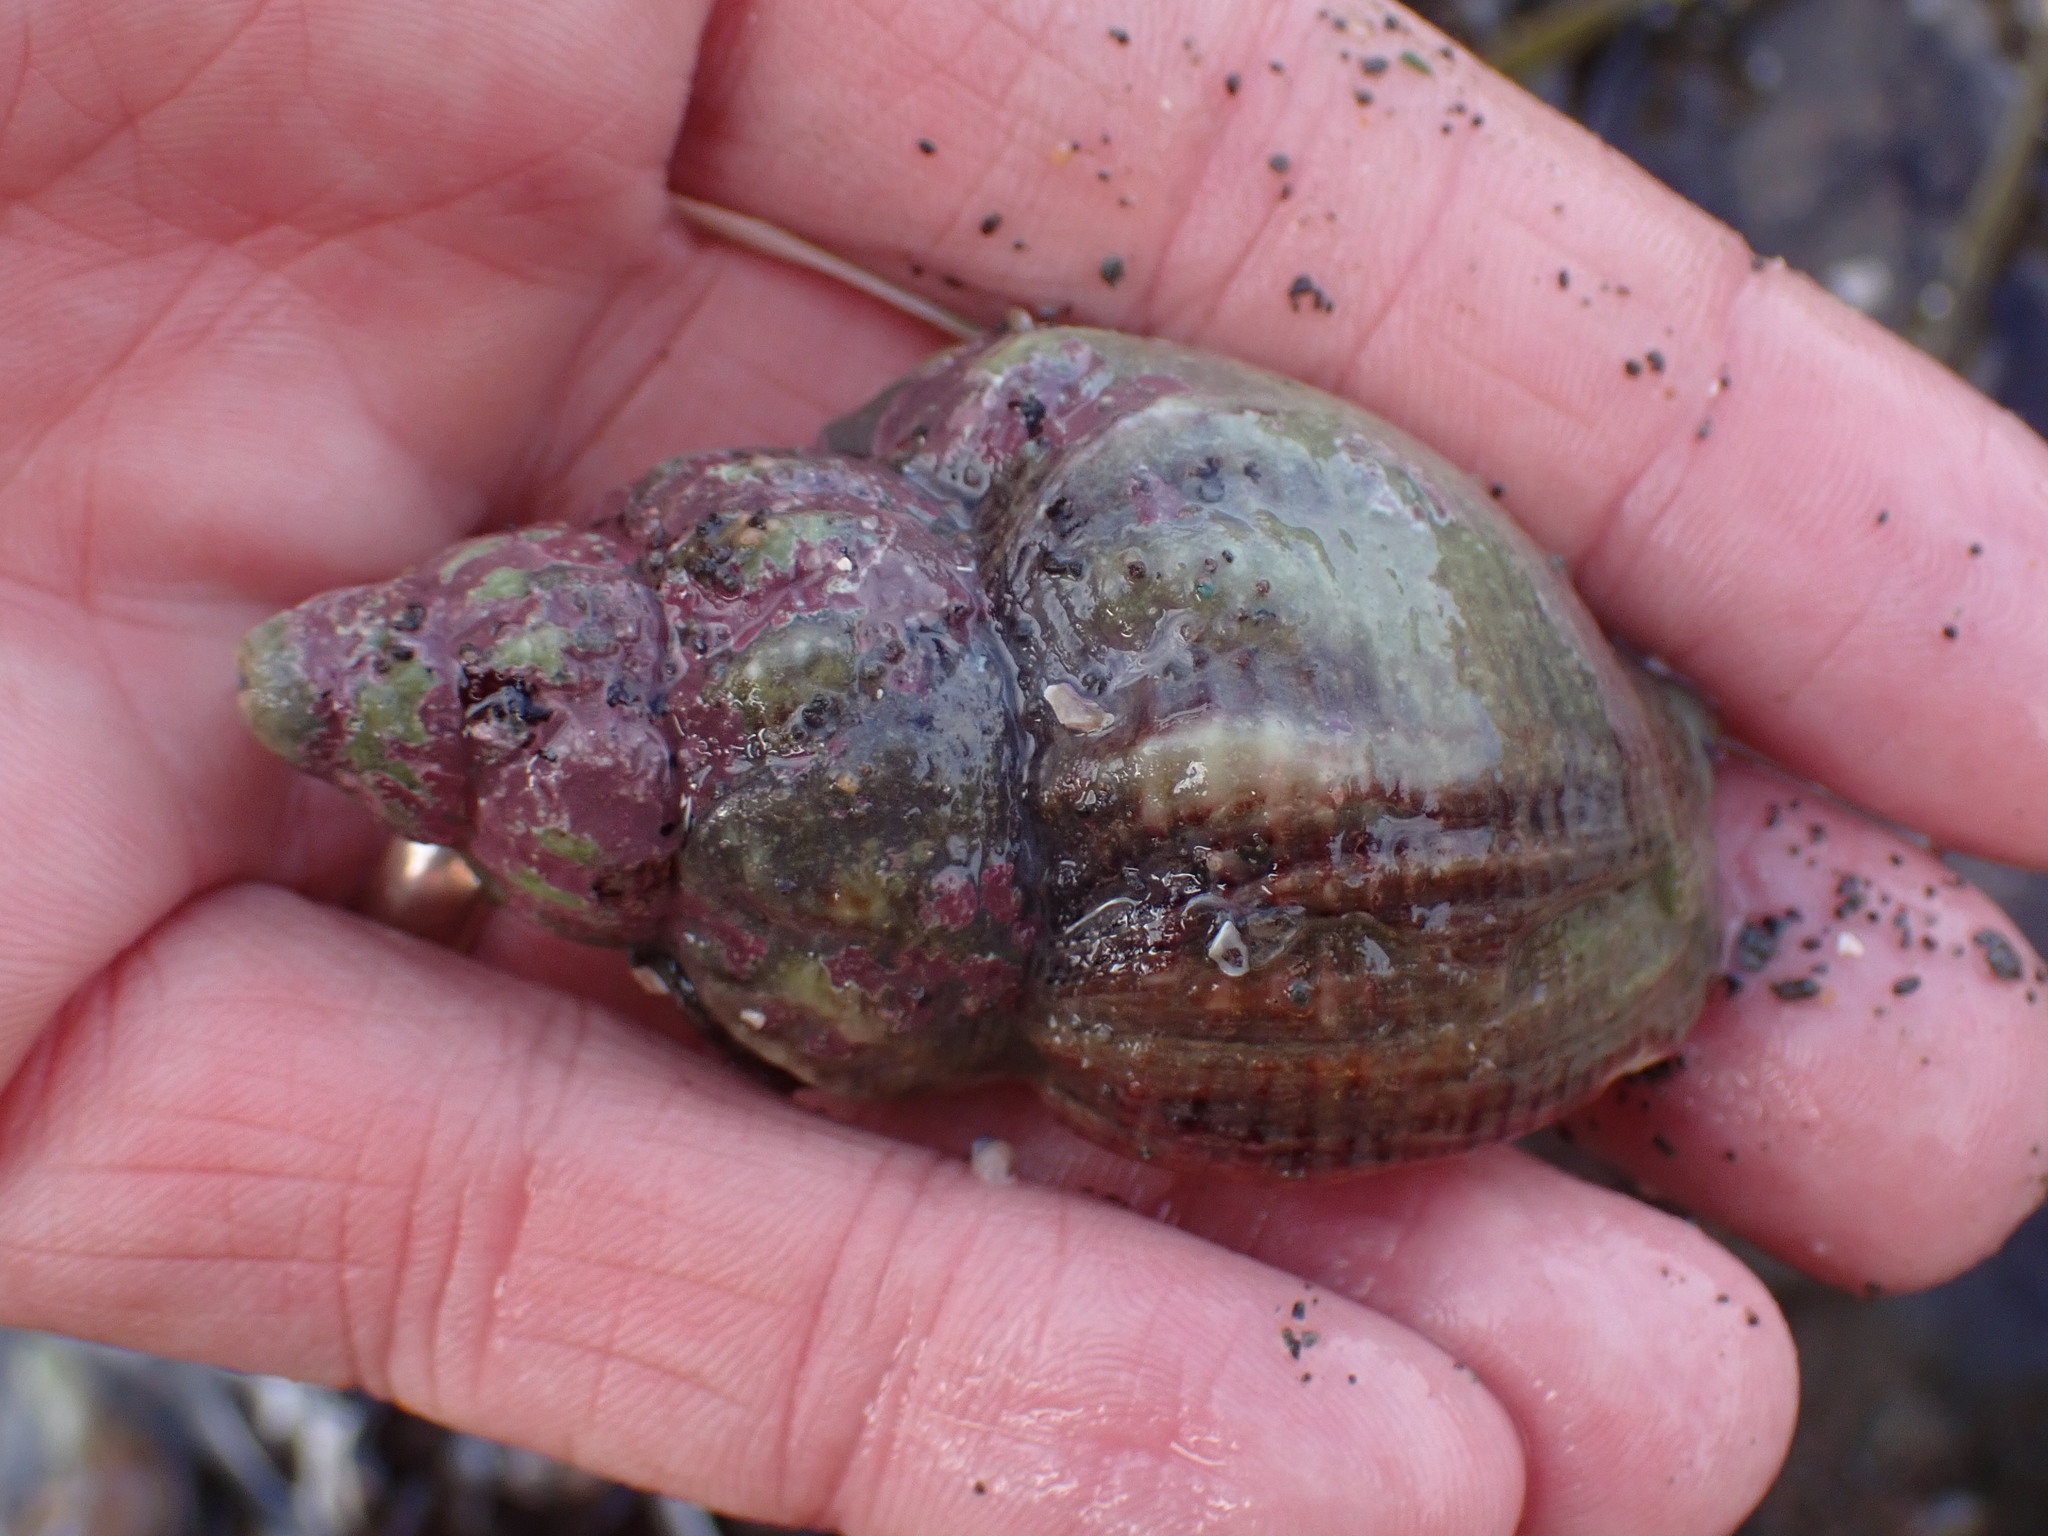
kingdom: Animalia
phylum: Mollusca
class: Gastropoda
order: Neogastropoda
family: Buccinidae
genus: Buccinum
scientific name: Buccinum undatum
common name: Common whelk
